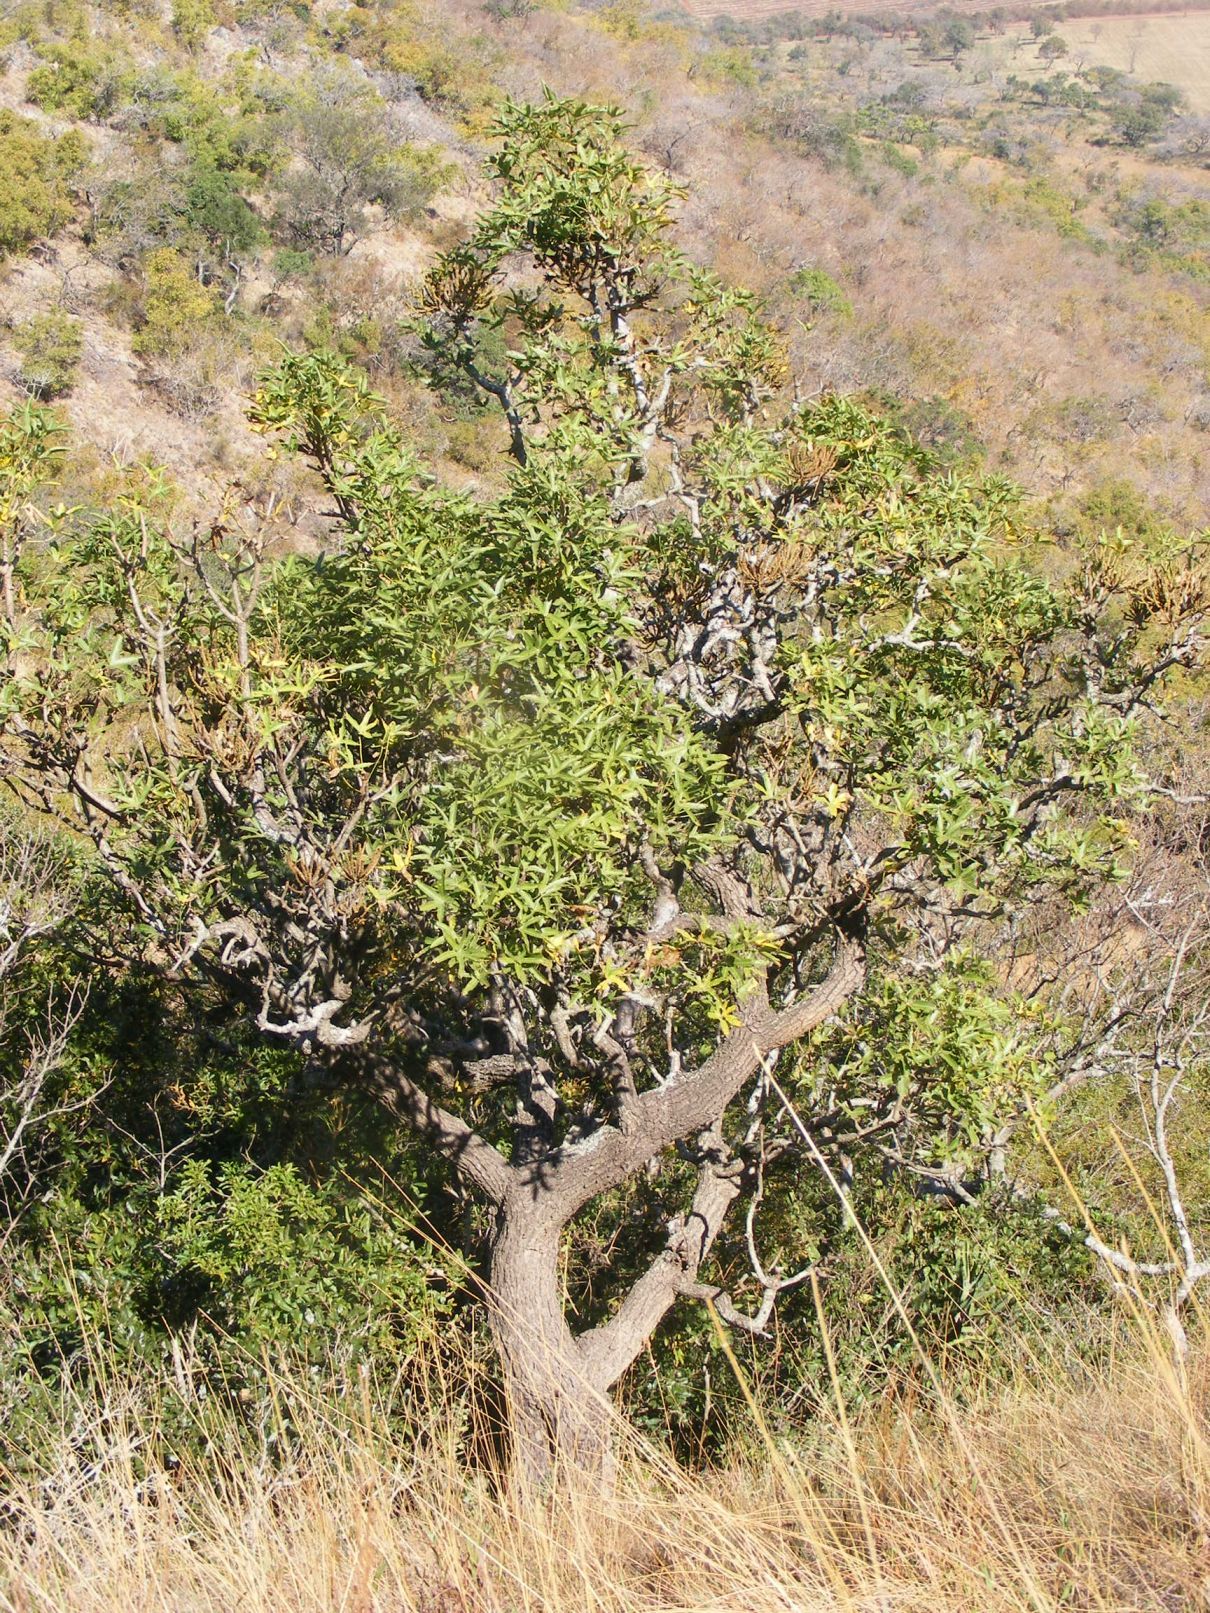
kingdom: Plantae
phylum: Tracheophyta
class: Magnoliopsida
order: Apiales
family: Araliaceae
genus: Cussonia
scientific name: Cussonia natalensis
